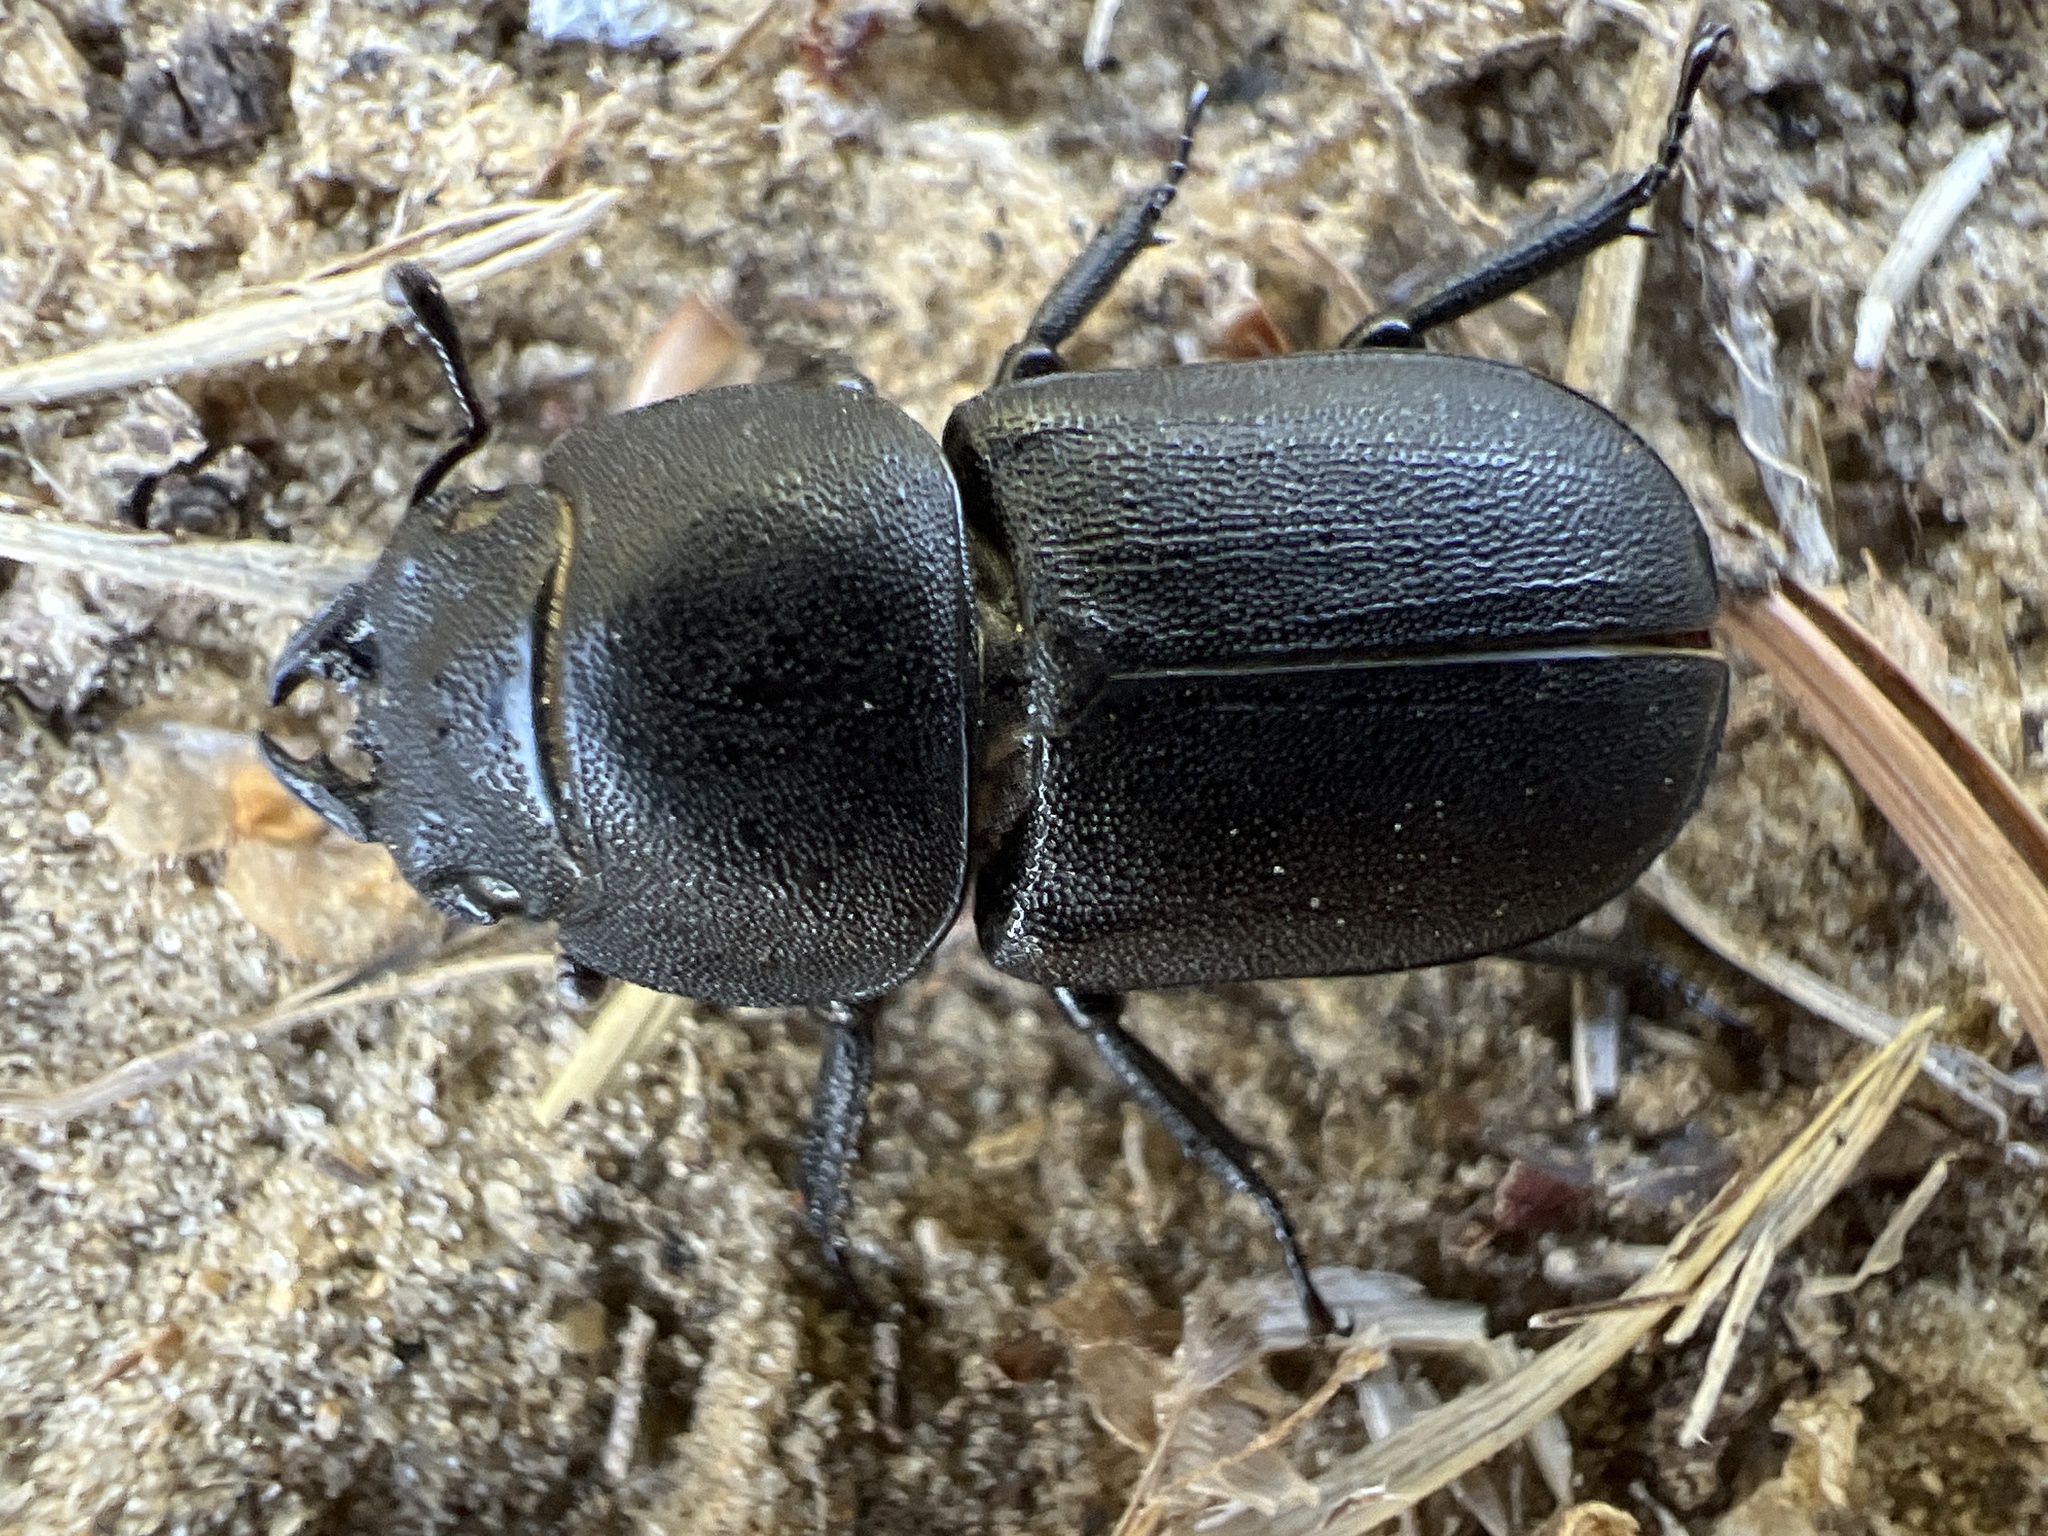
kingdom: Animalia
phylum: Arthropoda
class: Insecta
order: Coleoptera
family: Lucanidae
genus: Dorcus
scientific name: Dorcus parallelipipedus
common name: Lesser stag beetle
